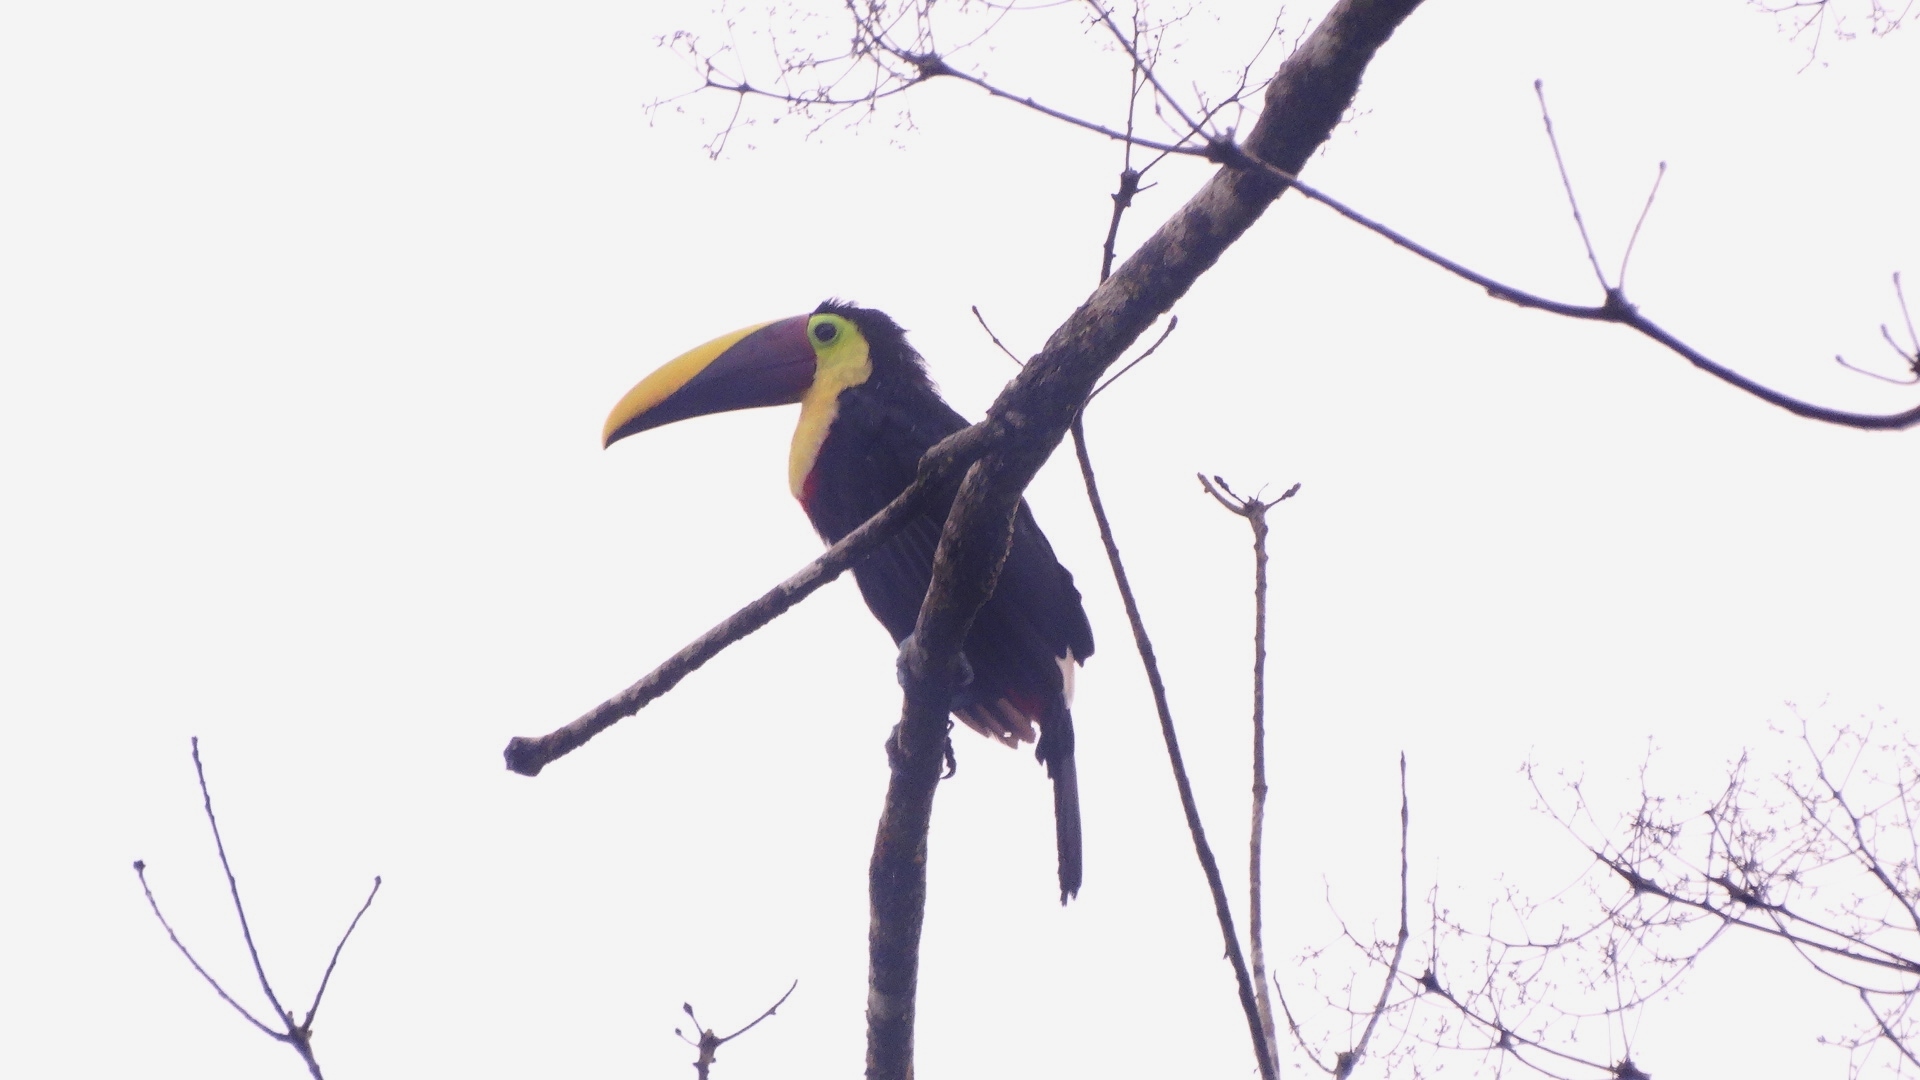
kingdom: Animalia
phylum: Chordata
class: Aves
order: Piciformes
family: Ramphastidae
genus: Ramphastos
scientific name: Ramphastos ambiguus
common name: Yellow-throated toucan
